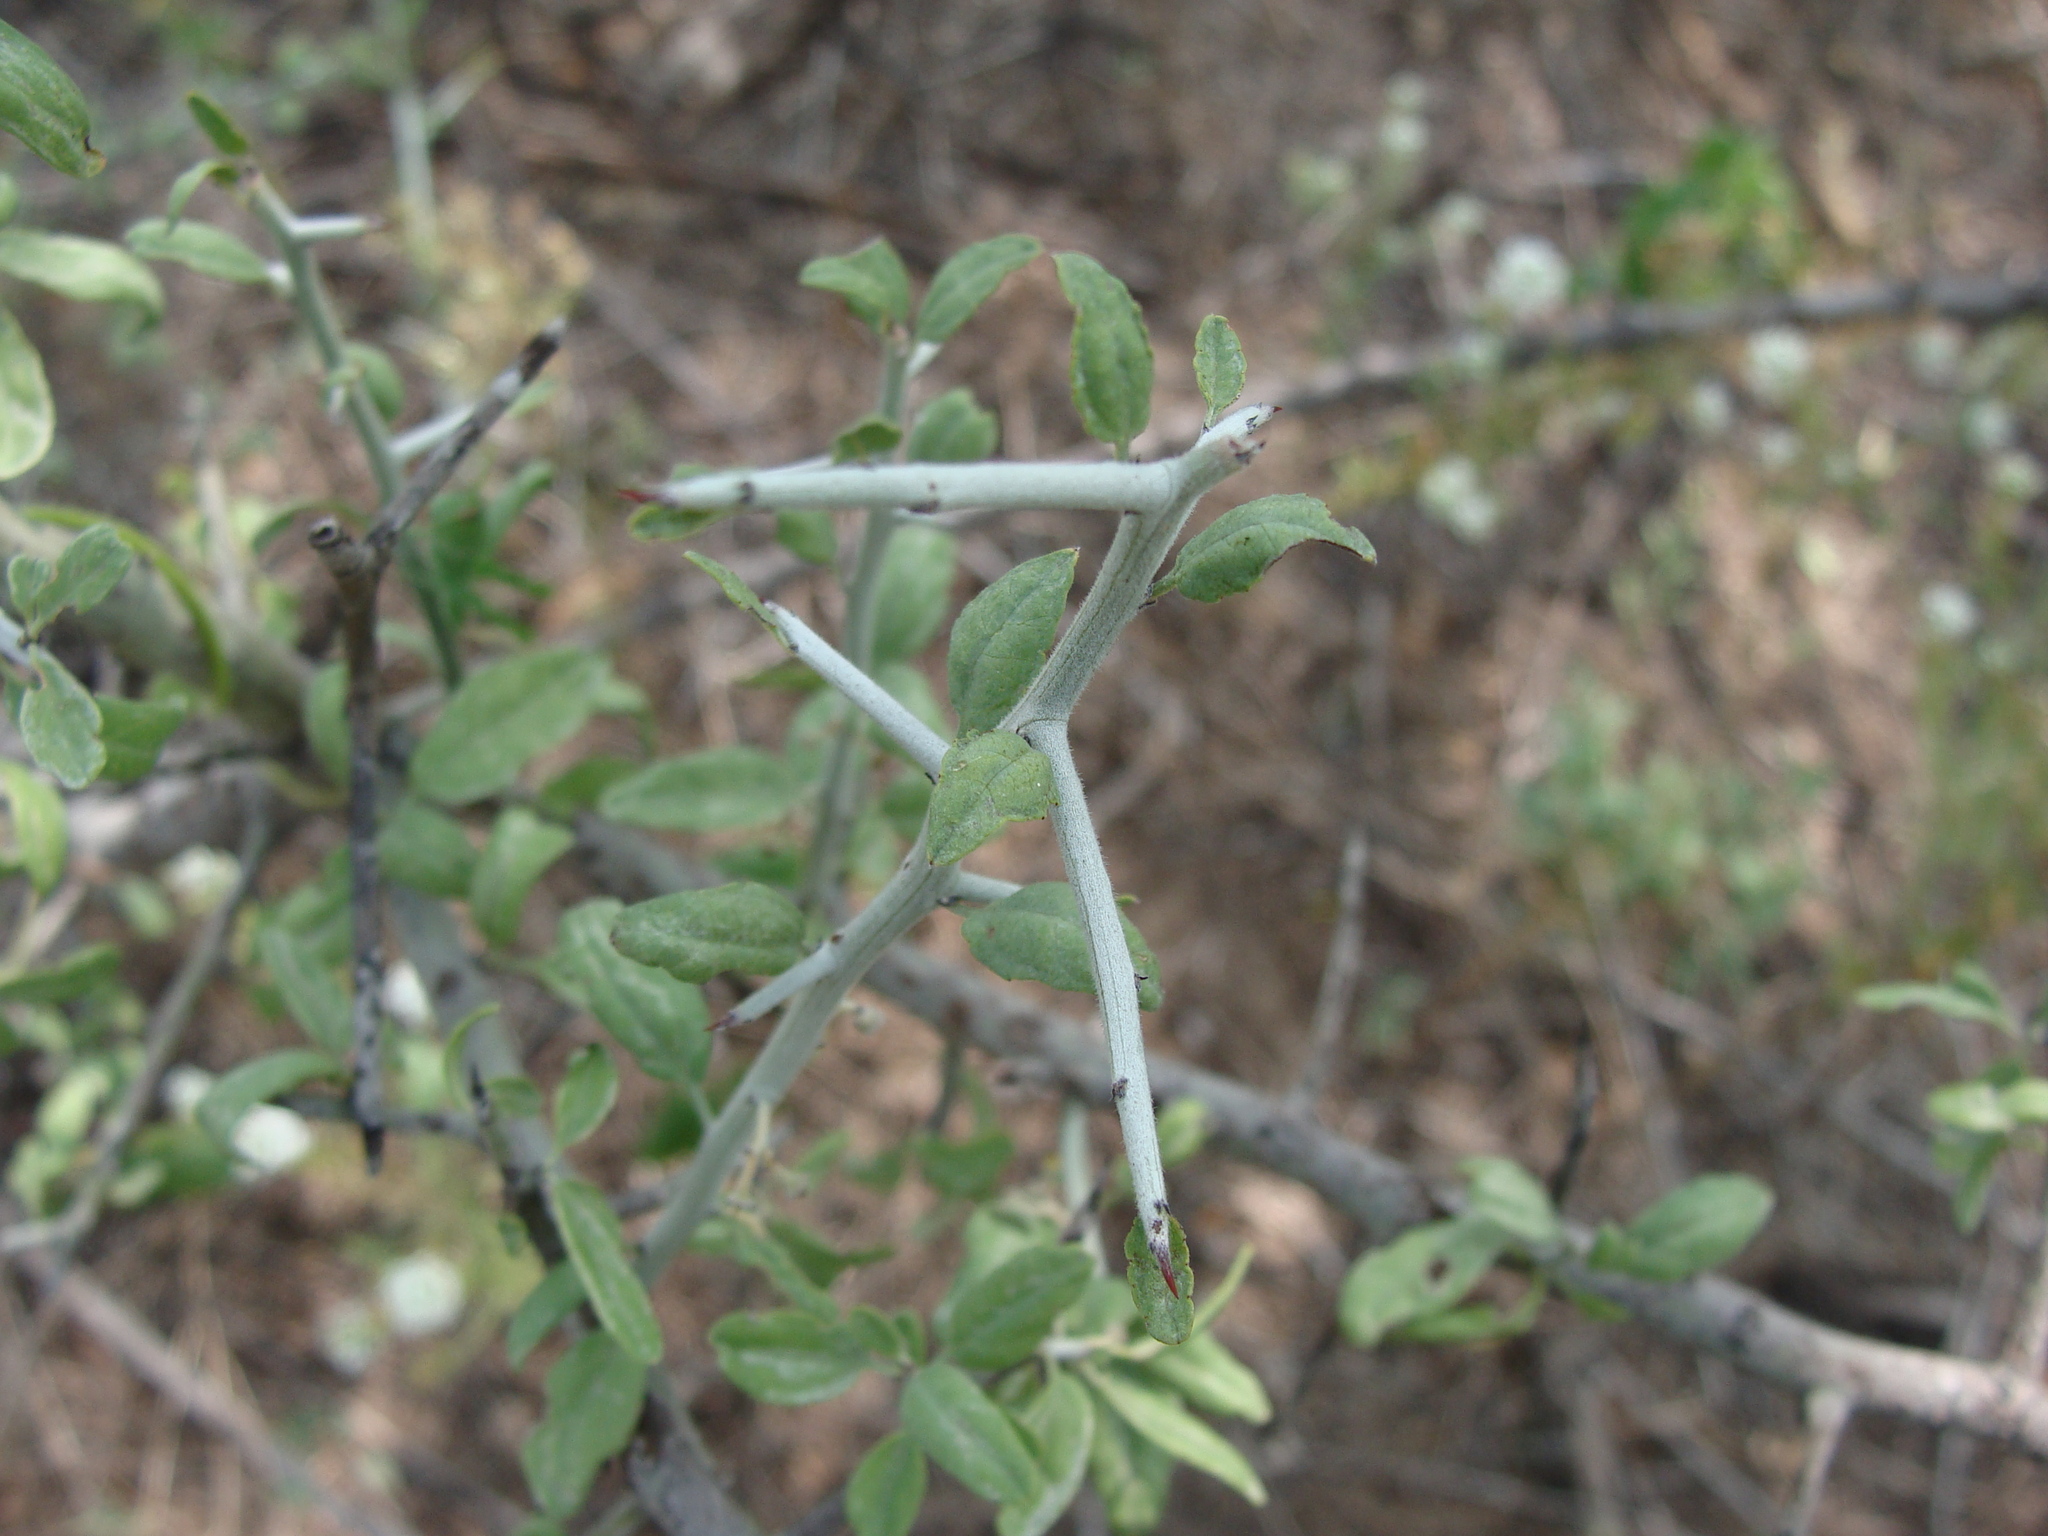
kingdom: Plantae
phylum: Tracheophyta
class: Magnoliopsida
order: Rosales
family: Rhamnaceae
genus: Sarcomphalus
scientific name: Sarcomphalus obtusifolius
